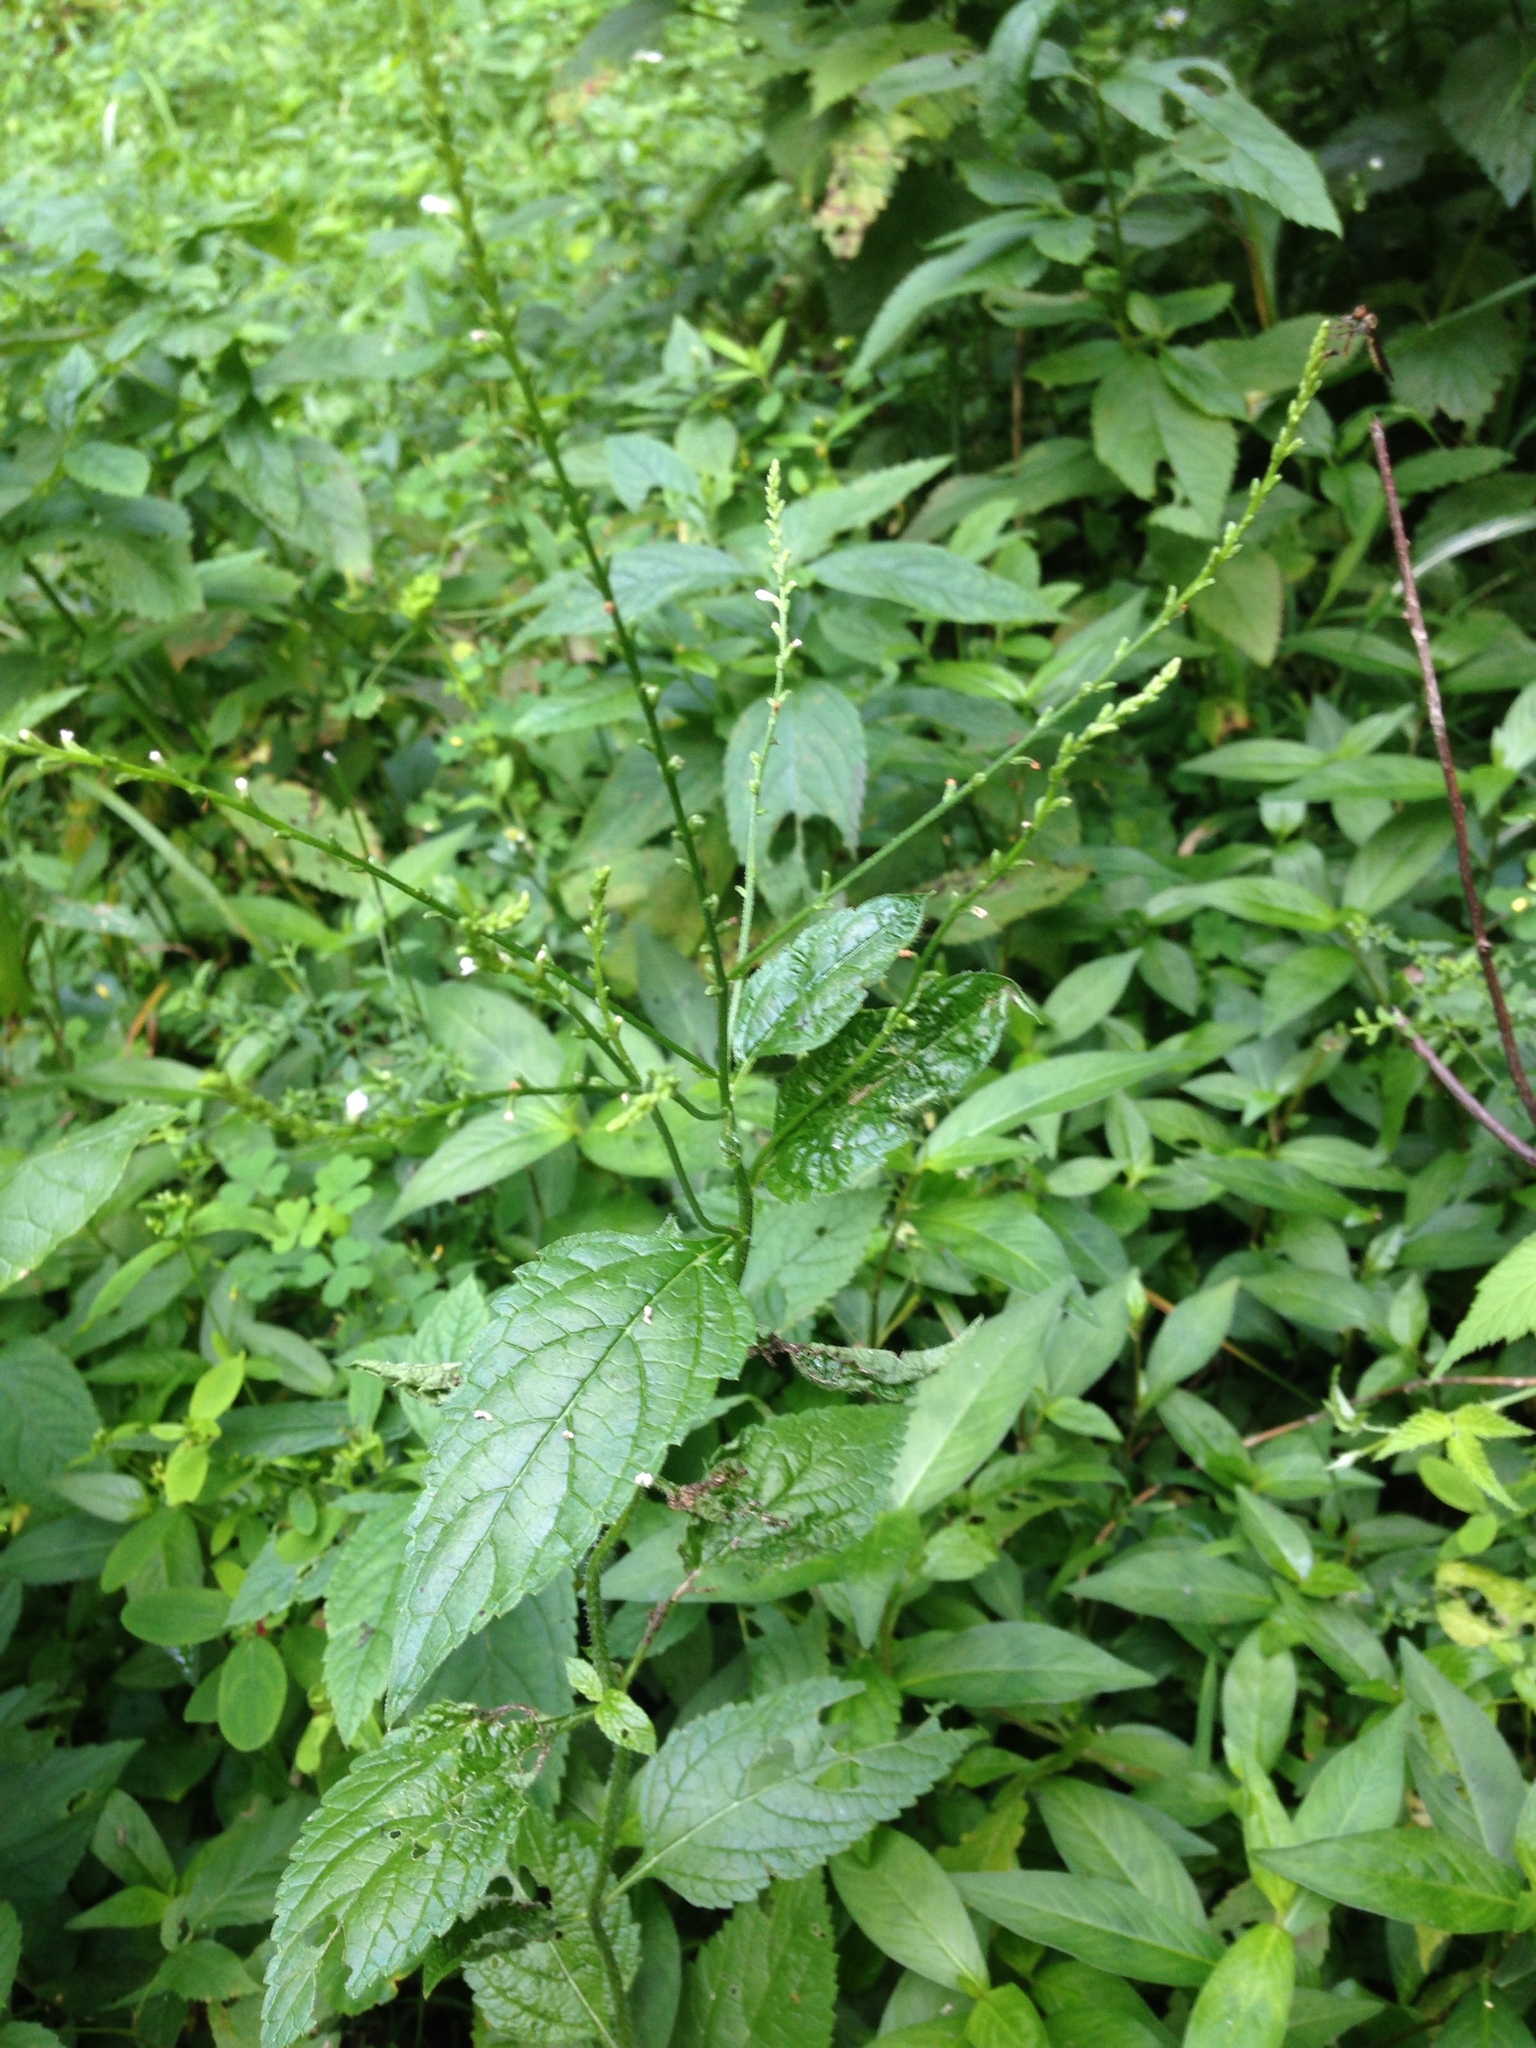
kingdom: Plantae
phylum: Tracheophyta
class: Magnoliopsida
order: Lamiales
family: Verbenaceae
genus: Verbena
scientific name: Verbena urticifolia
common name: Nettle-leaved vervain
